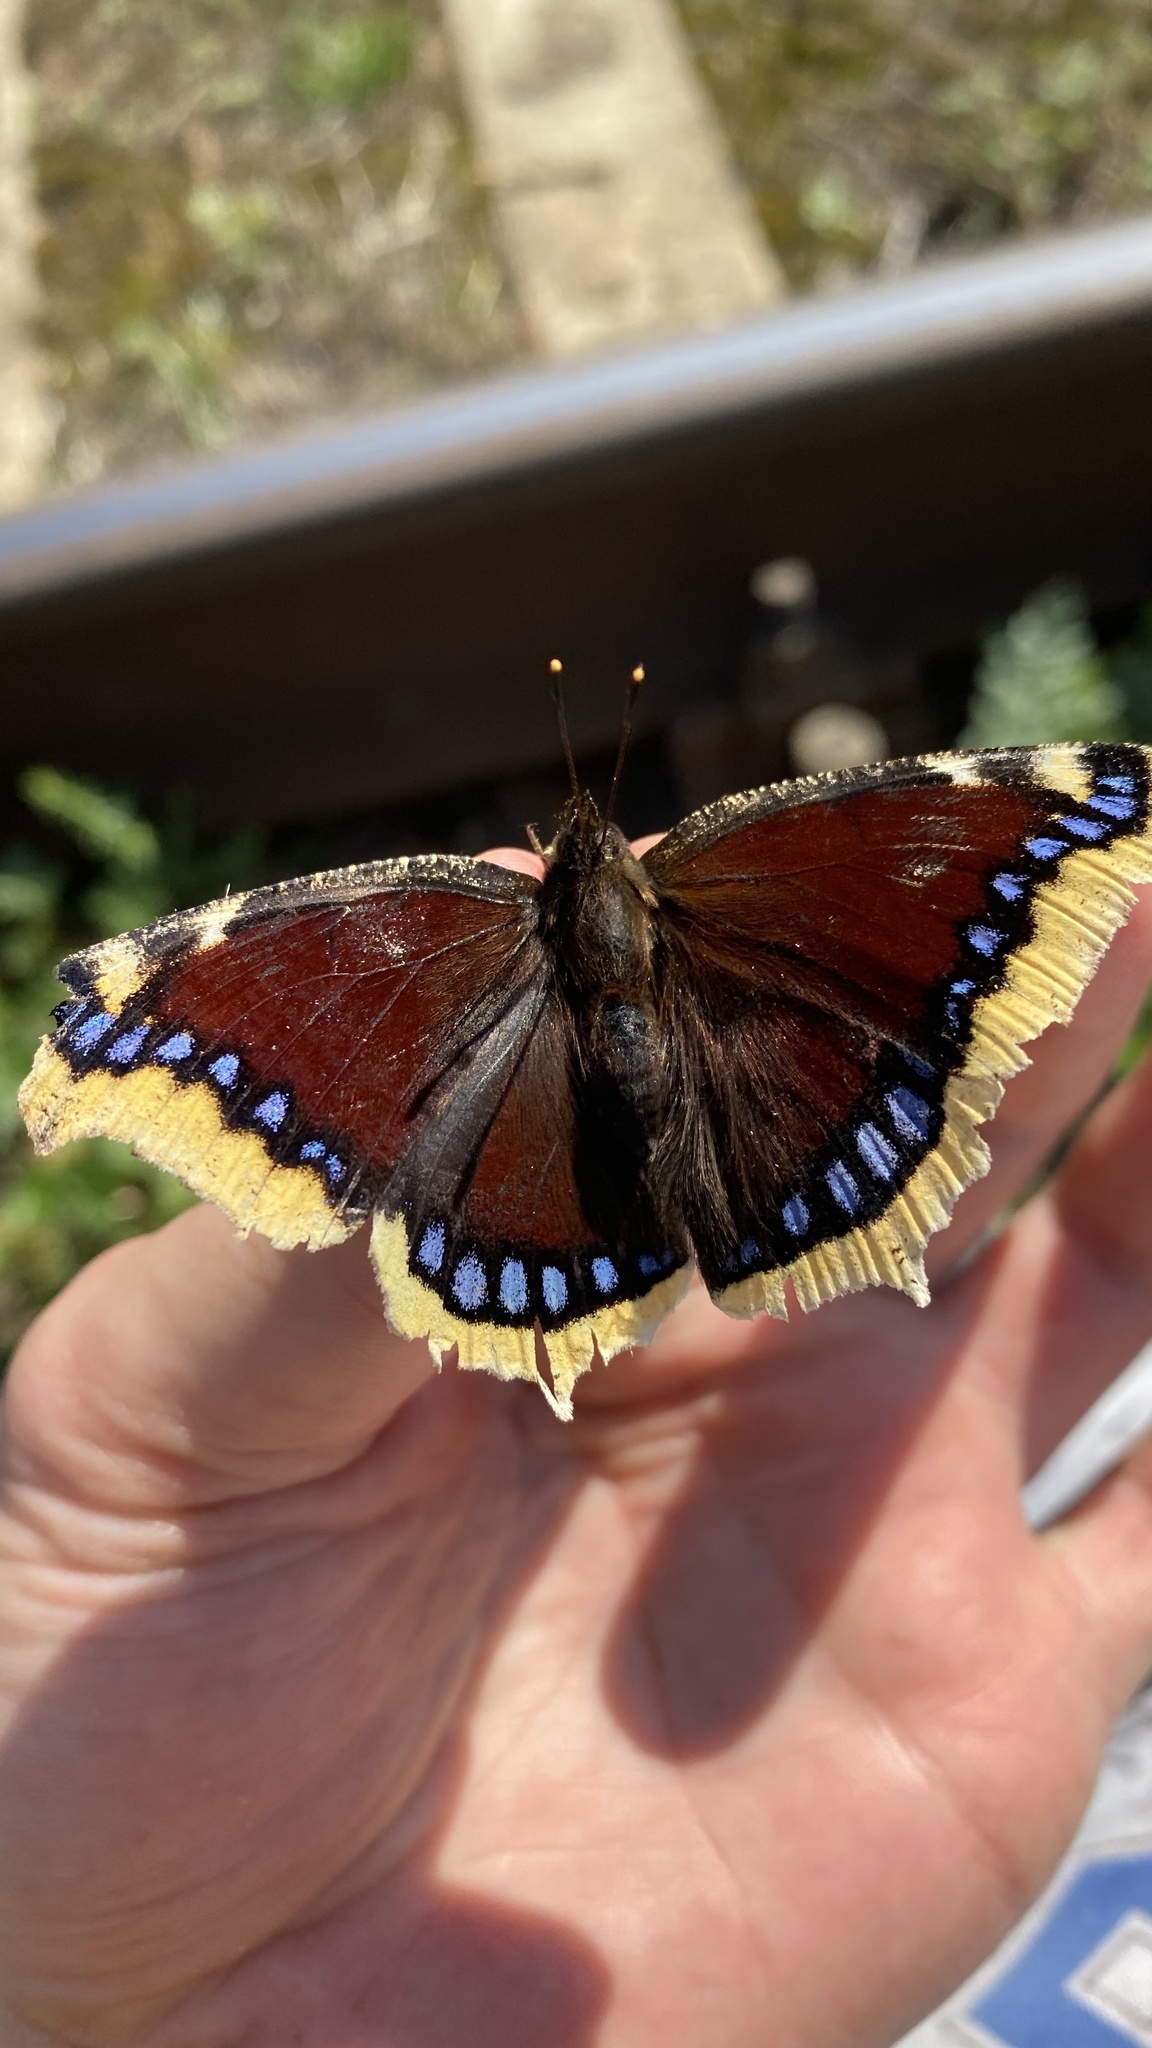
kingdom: Animalia
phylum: Arthropoda
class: Insecta
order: Lepidoptera
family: Nymphalidae
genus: Nymphalis
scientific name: Nymphalis antiopa
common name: Camberwell beauty
